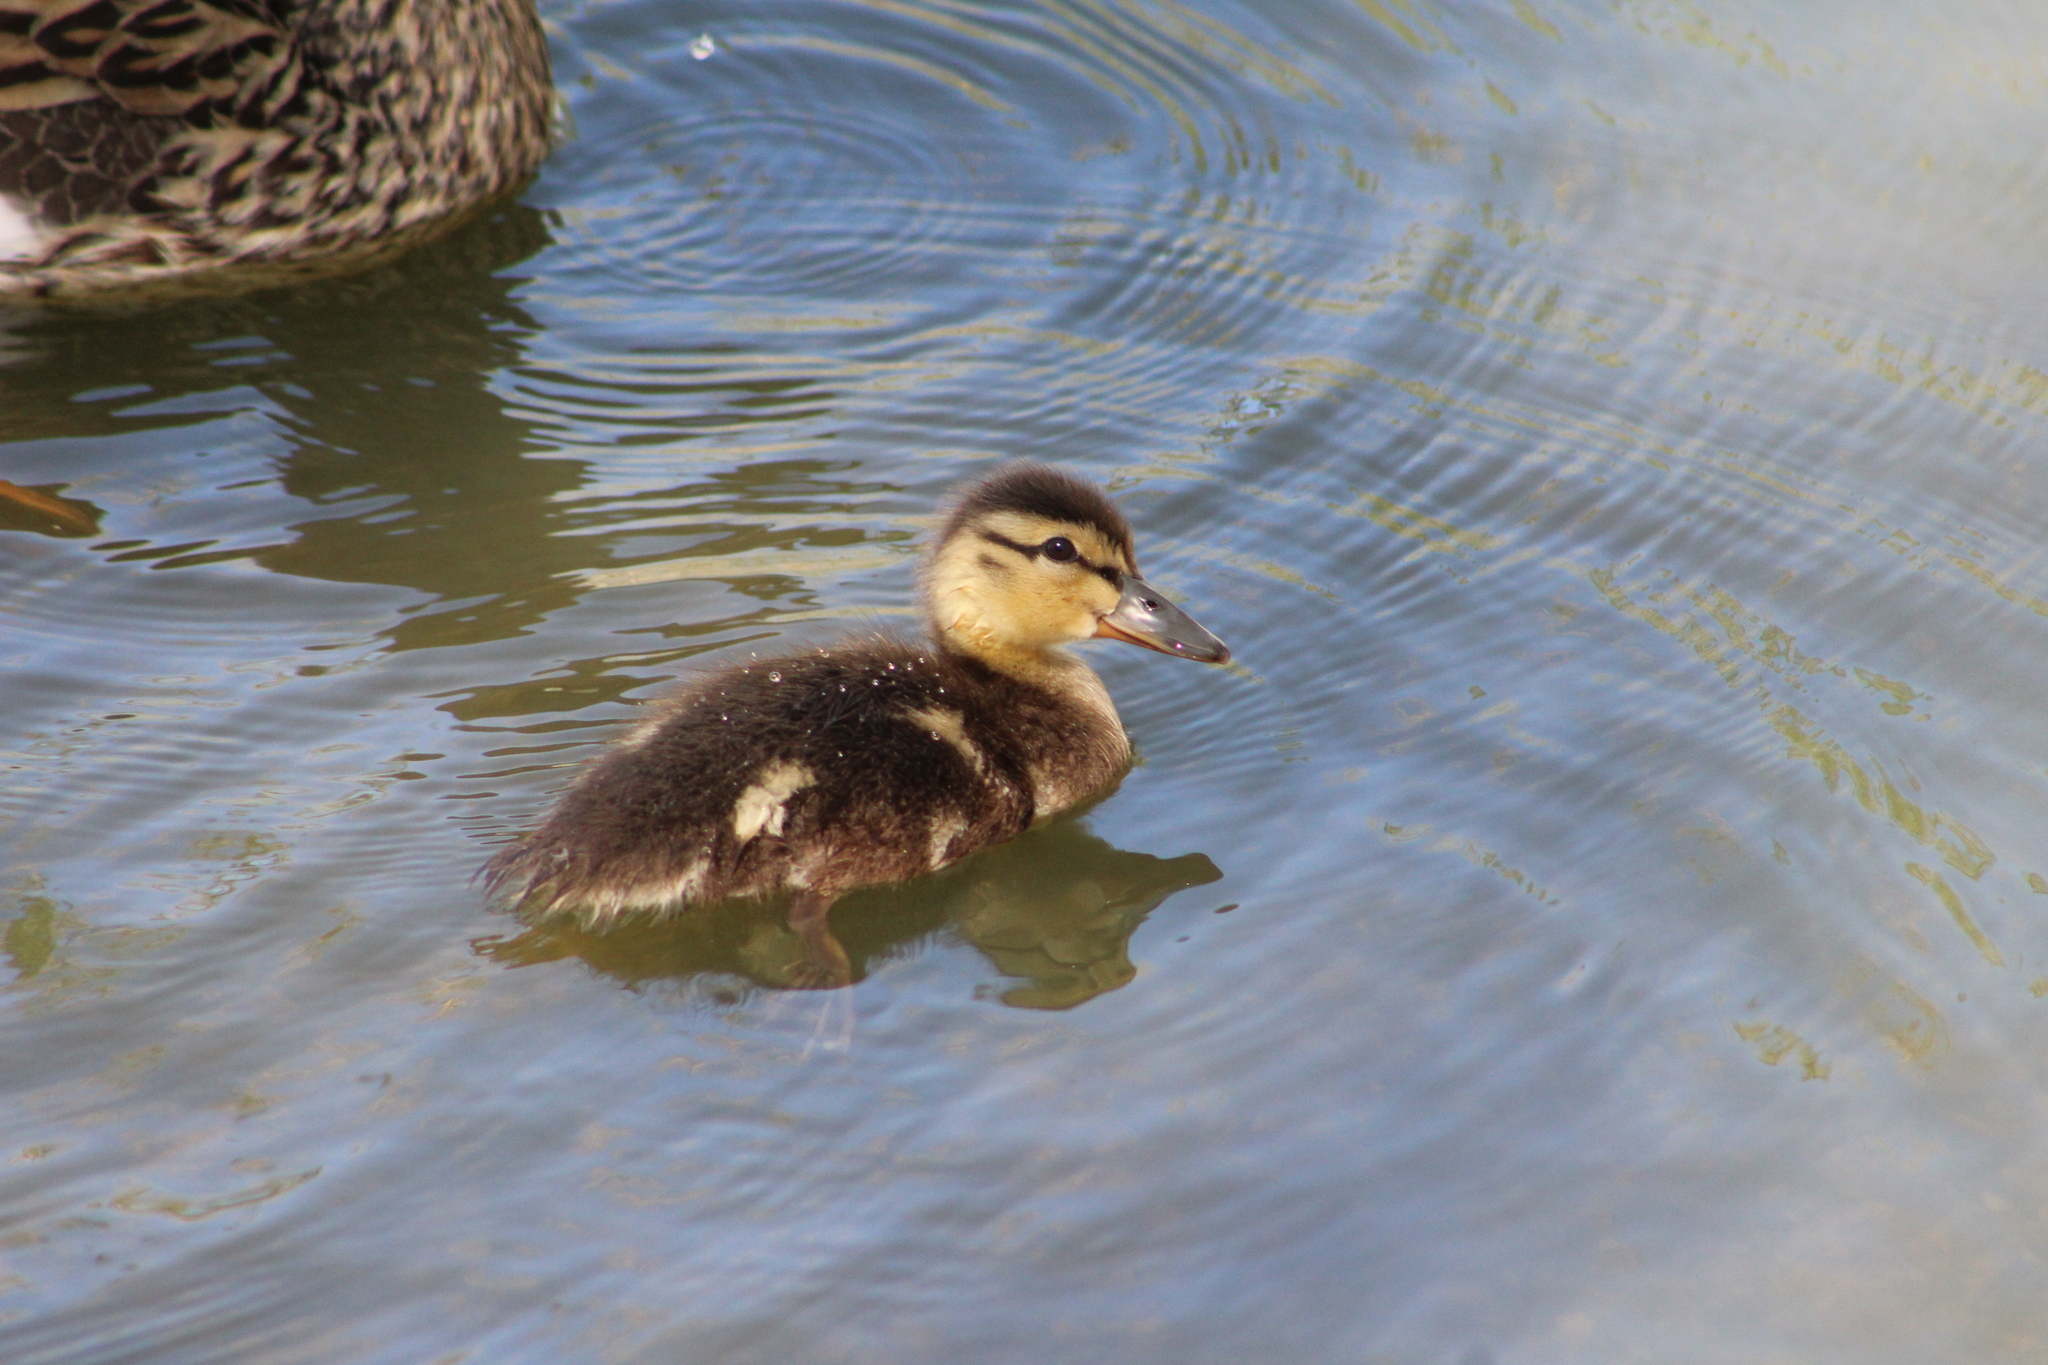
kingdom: Animalia
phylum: Chordata
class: Aves
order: Anseriformes
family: Anatidae
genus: Anas
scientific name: Anas platyrhynchos
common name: Mallard
